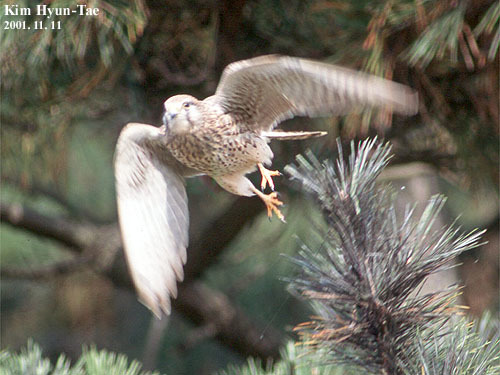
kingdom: Animalia
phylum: Chordata
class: Aves
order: Falconiformes
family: Falconidae
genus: Falco
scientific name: Falco tinnunculus
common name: Common kestrel
